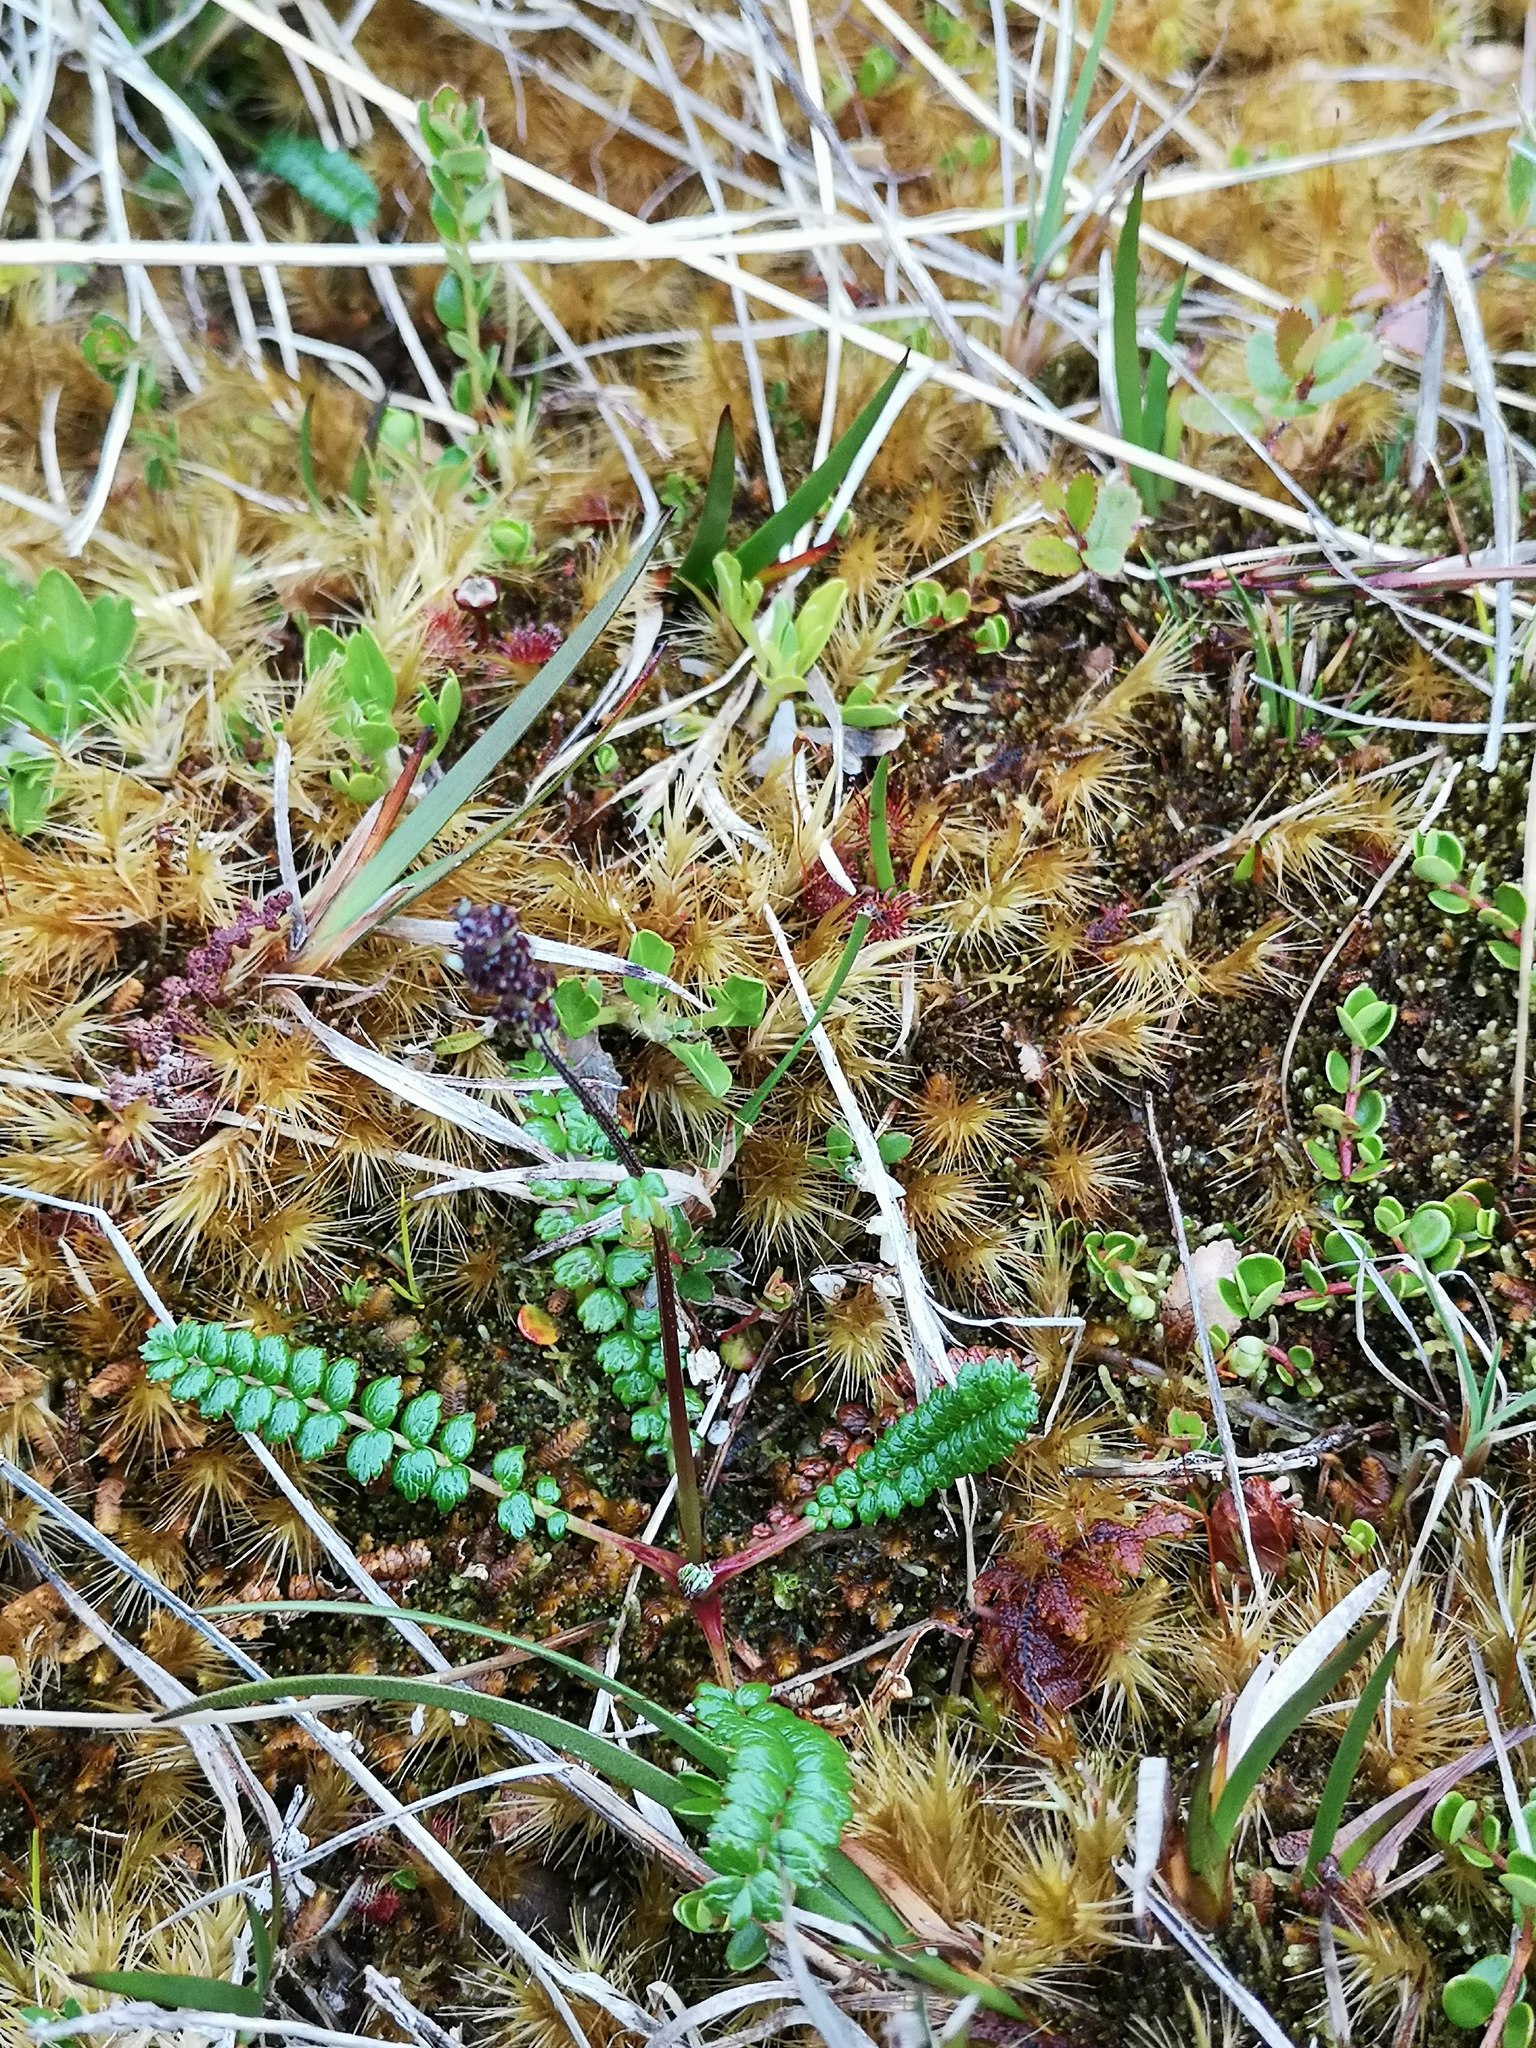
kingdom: Plantae
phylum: Tracheophyta
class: Magnoliopsida
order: Rosales
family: Rosaceae
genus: Acaena
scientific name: Acaena pumila
